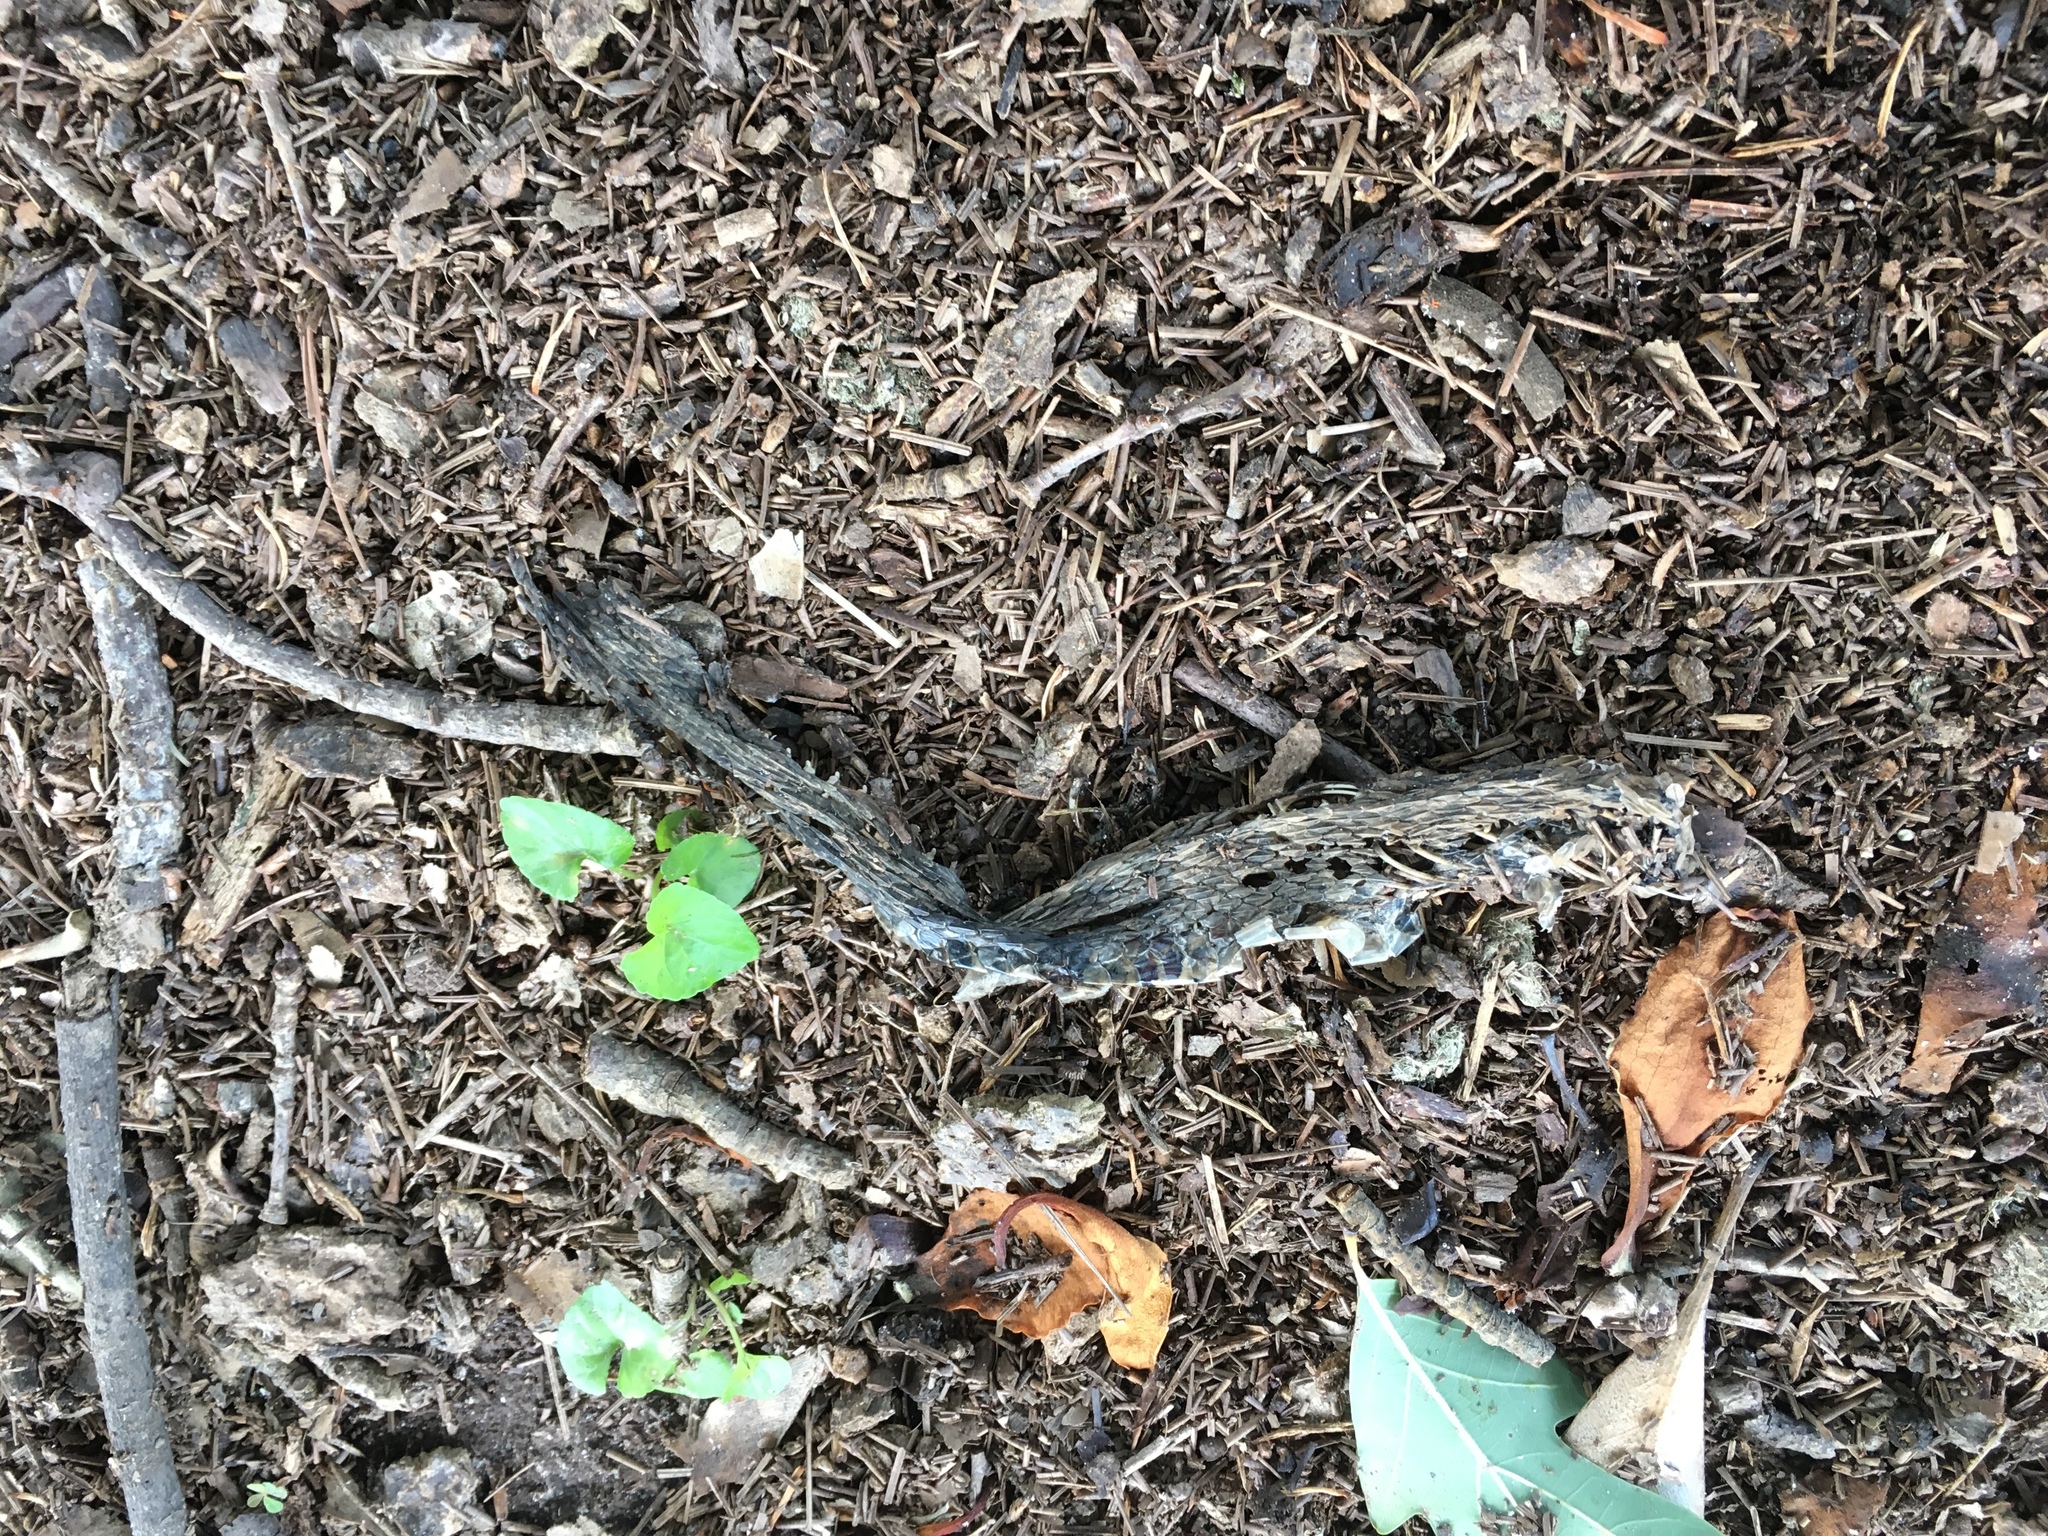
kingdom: Animalia
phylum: Chordata
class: Squamata
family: Colubridae
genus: Thamnophis
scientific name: Thamnophis sirtalis
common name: Common garter snake
